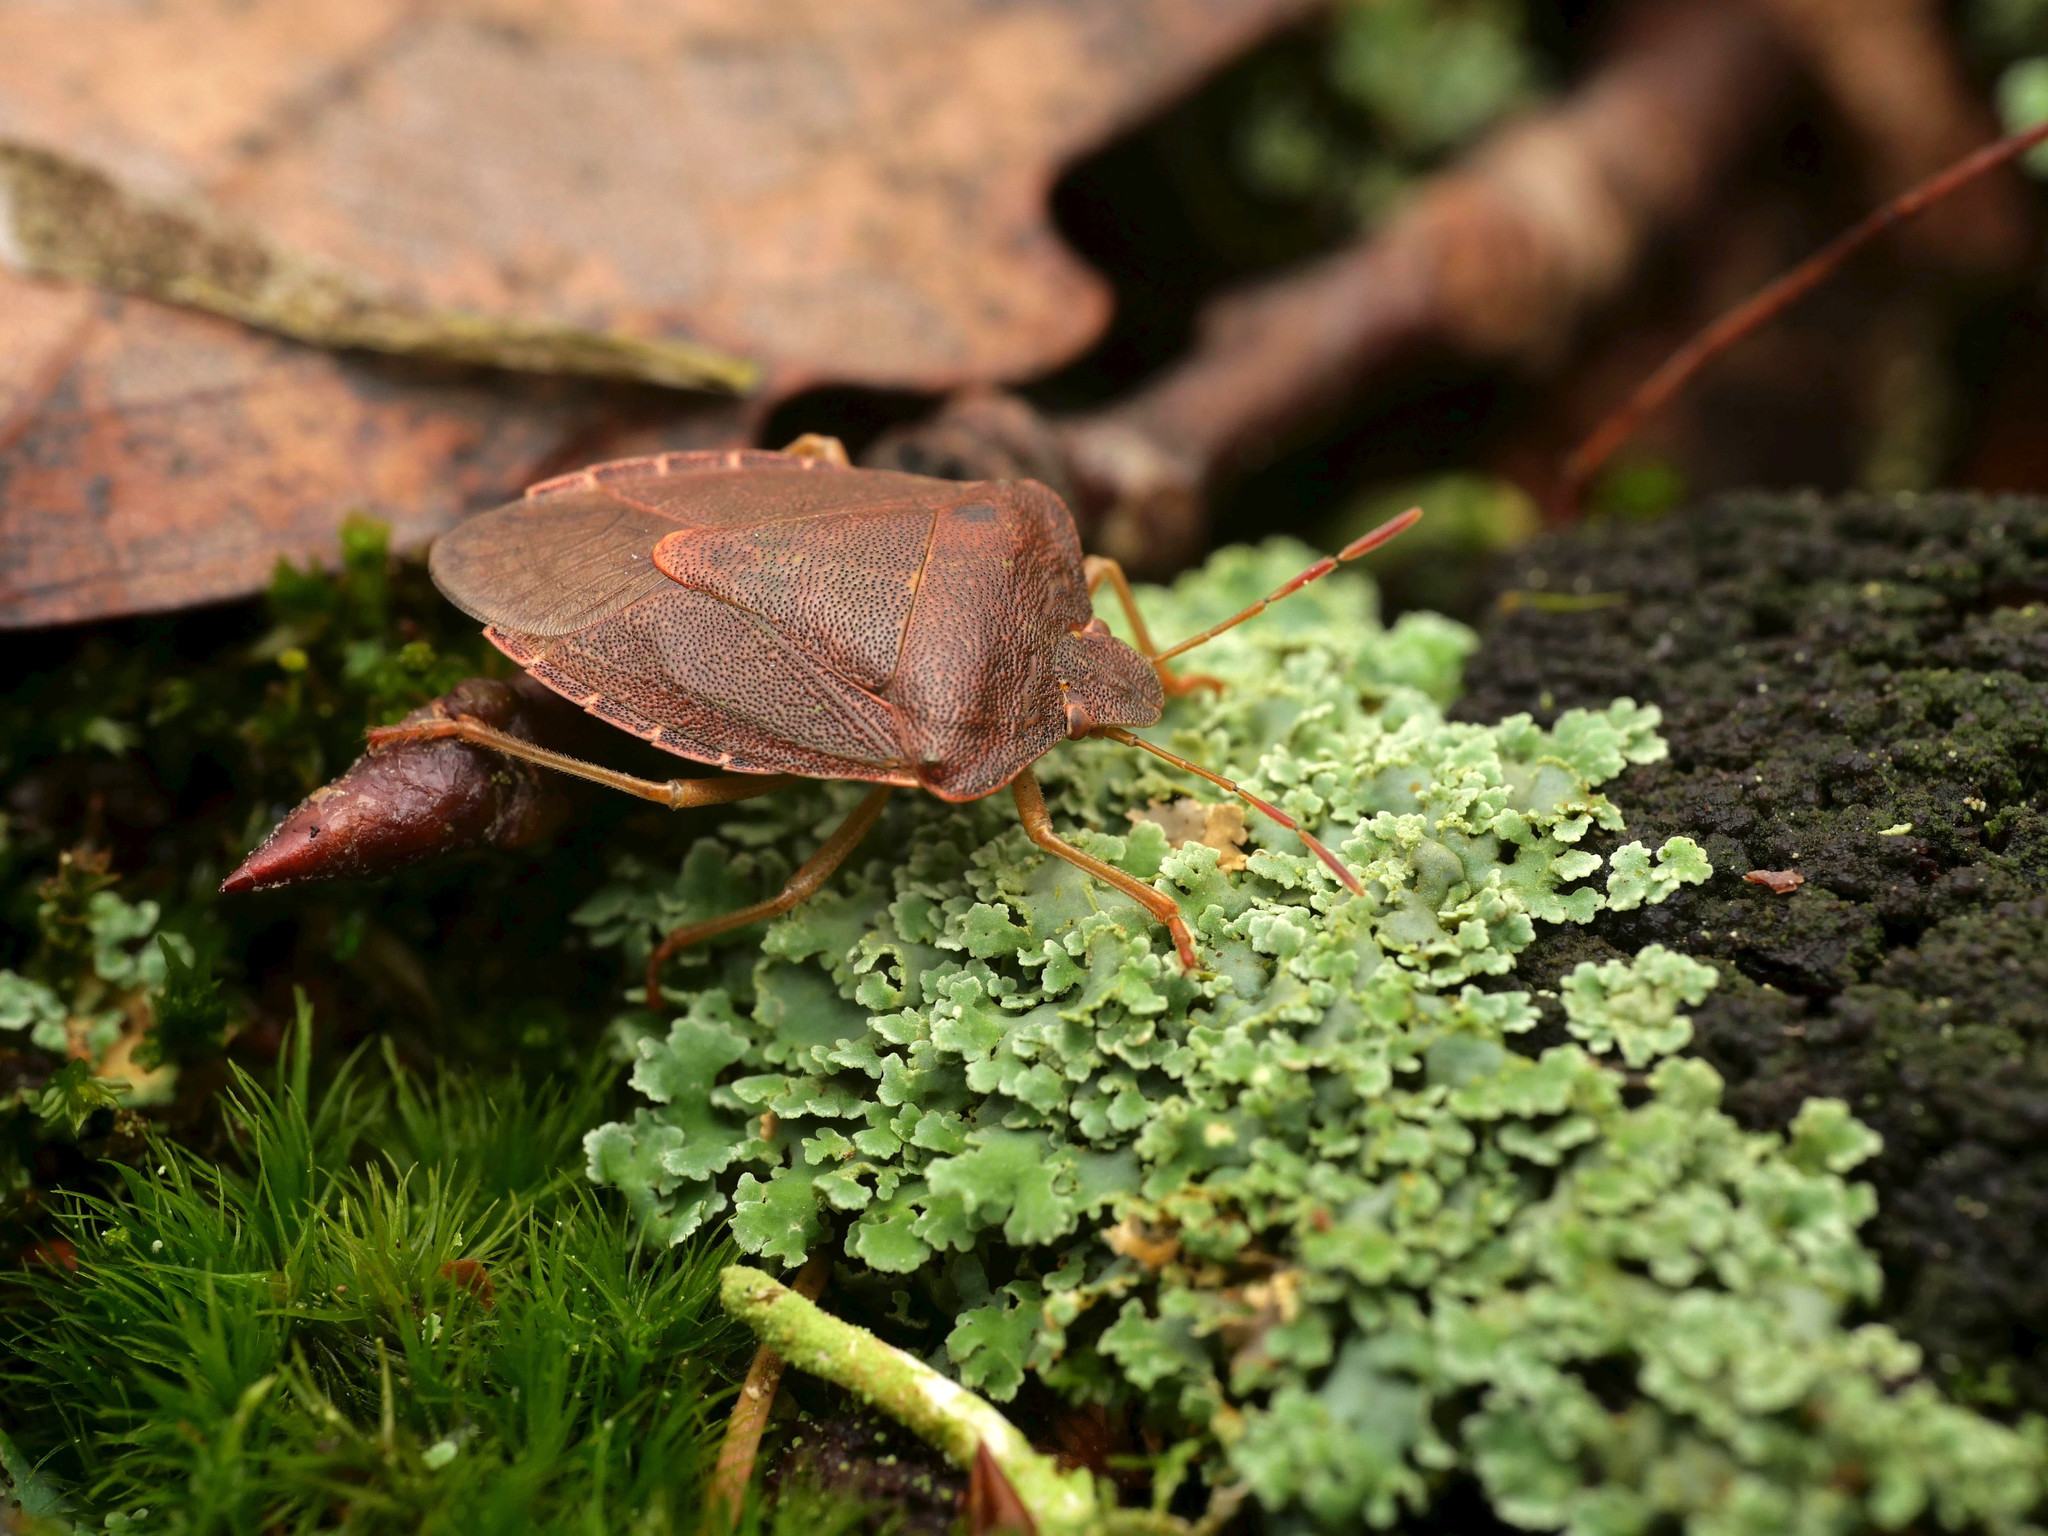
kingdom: Animalia
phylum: Arthropoda
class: Insecta
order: Hemiptera
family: Pentatomidae
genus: Palomena
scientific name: Palomena prasina
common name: Green shieldbug
